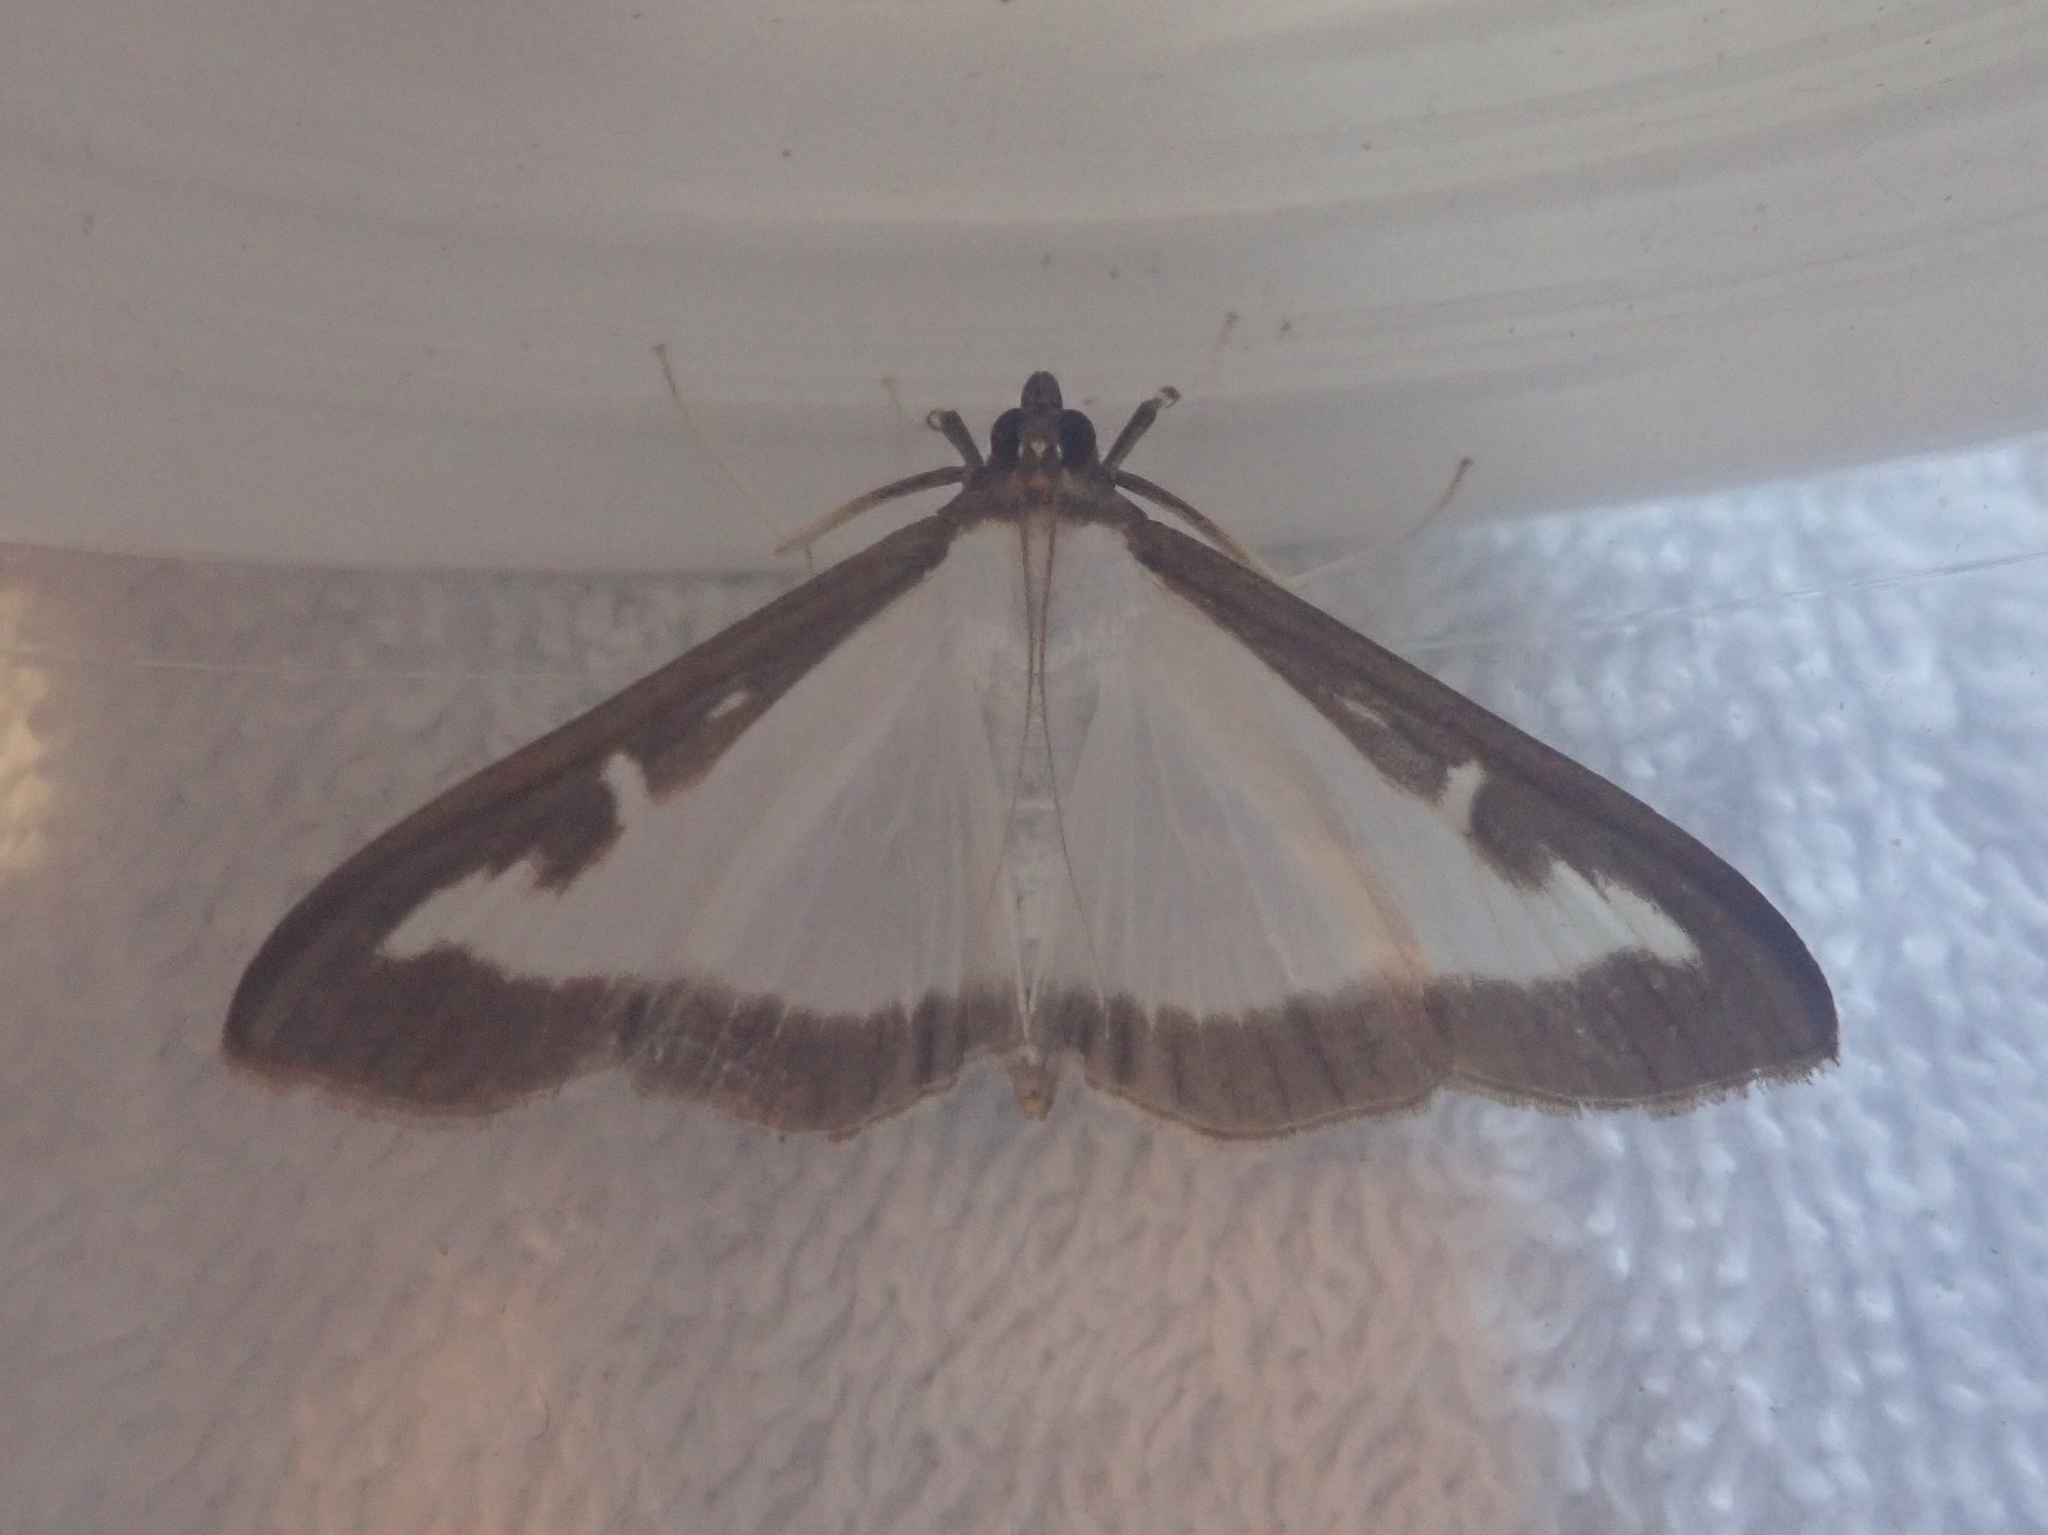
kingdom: Animalia
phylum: Arthropoda
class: Insecta
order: Lepidoptera
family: Crambidae
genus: Cydalima
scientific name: Cydalima perspectalis
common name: Box tree moth
